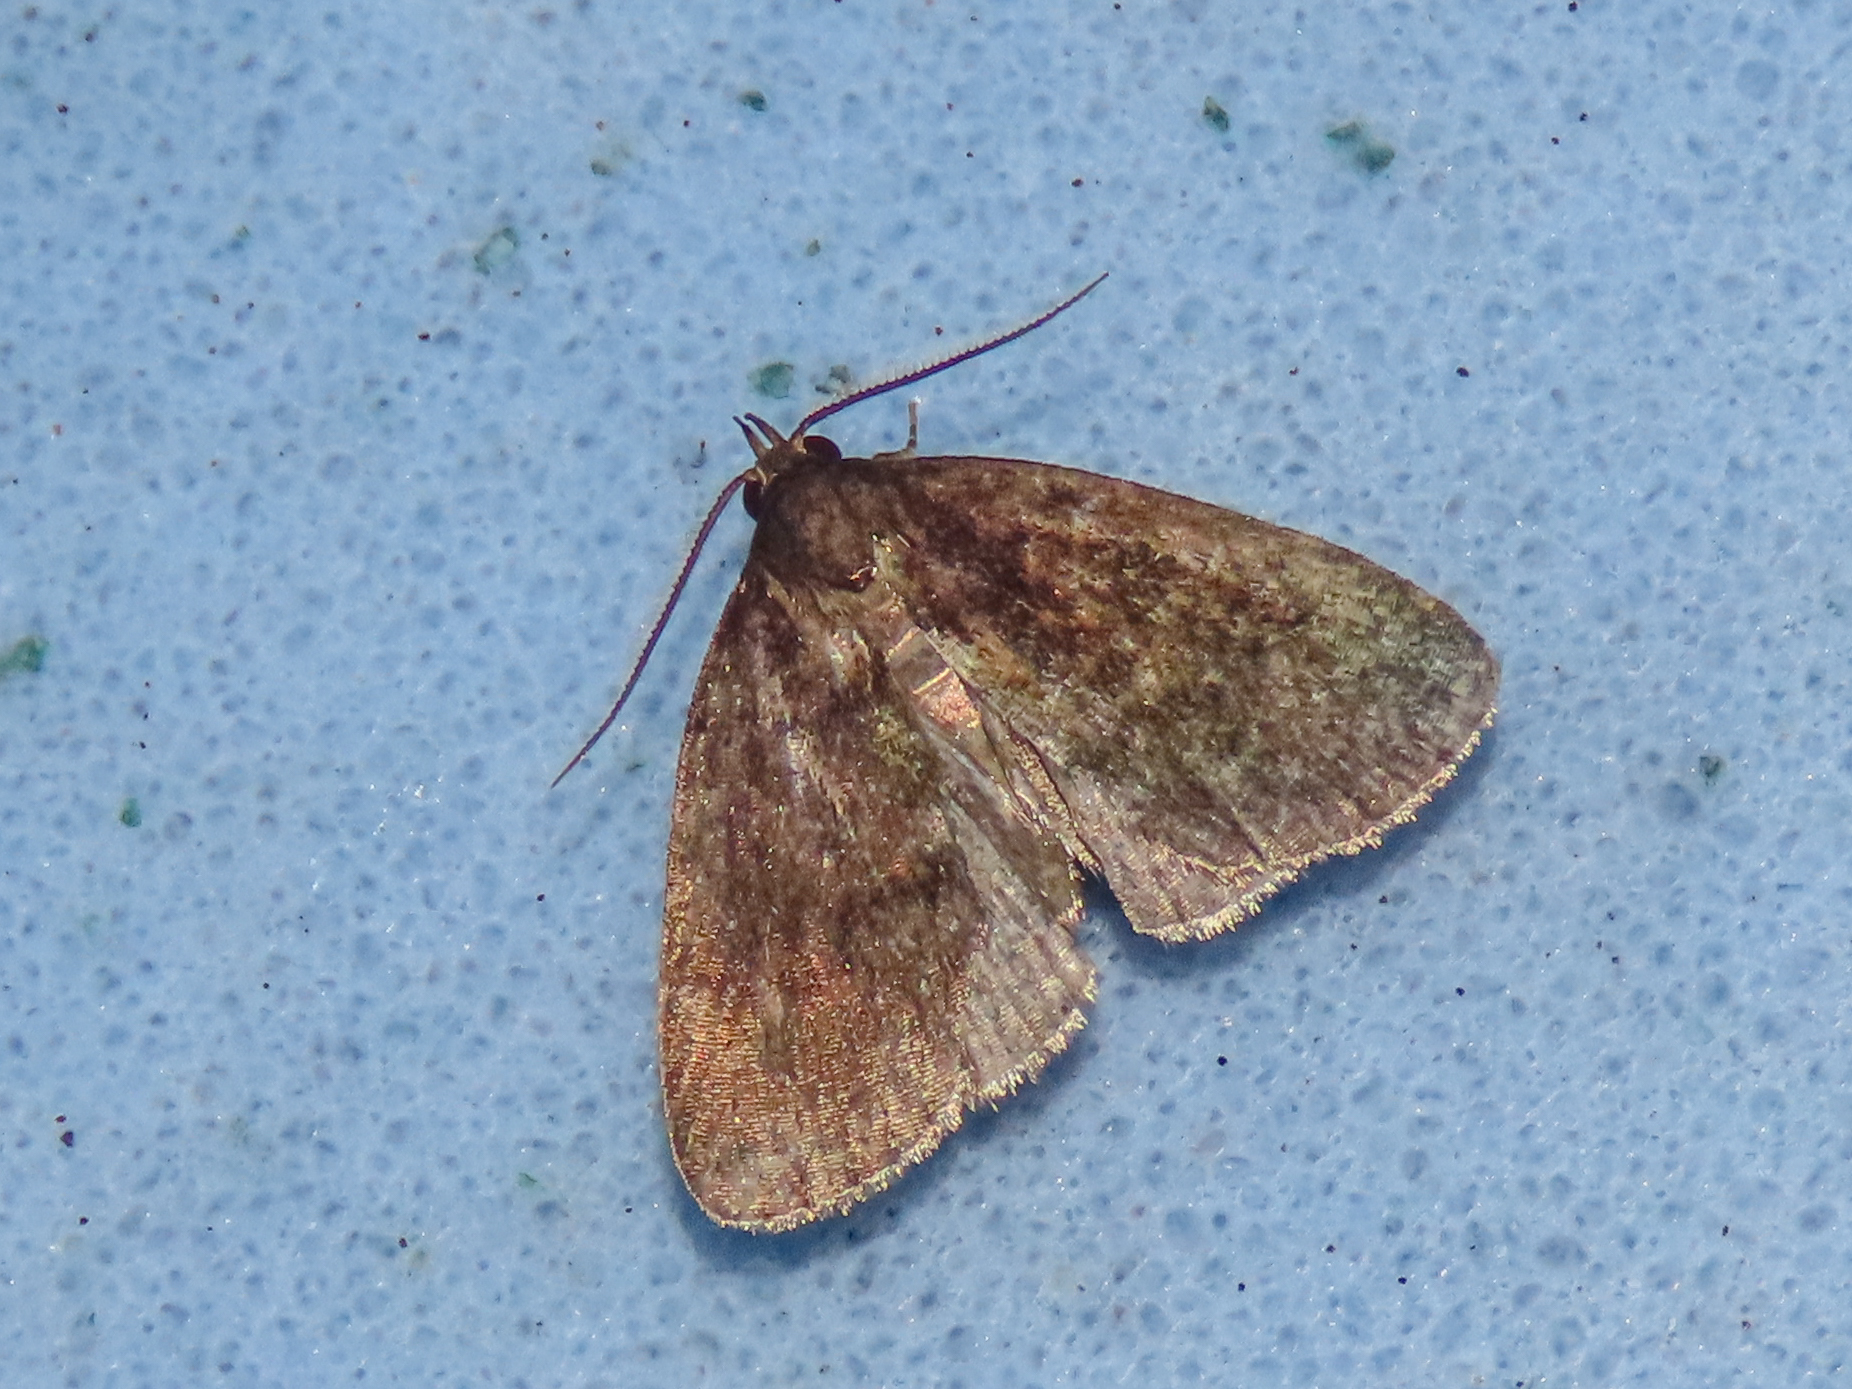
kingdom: Animalia
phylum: Arthropoda
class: Insecta
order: Lepidoptera
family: Erebidae
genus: Idia
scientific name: Idia rotundalis
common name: Rotund idia moth
